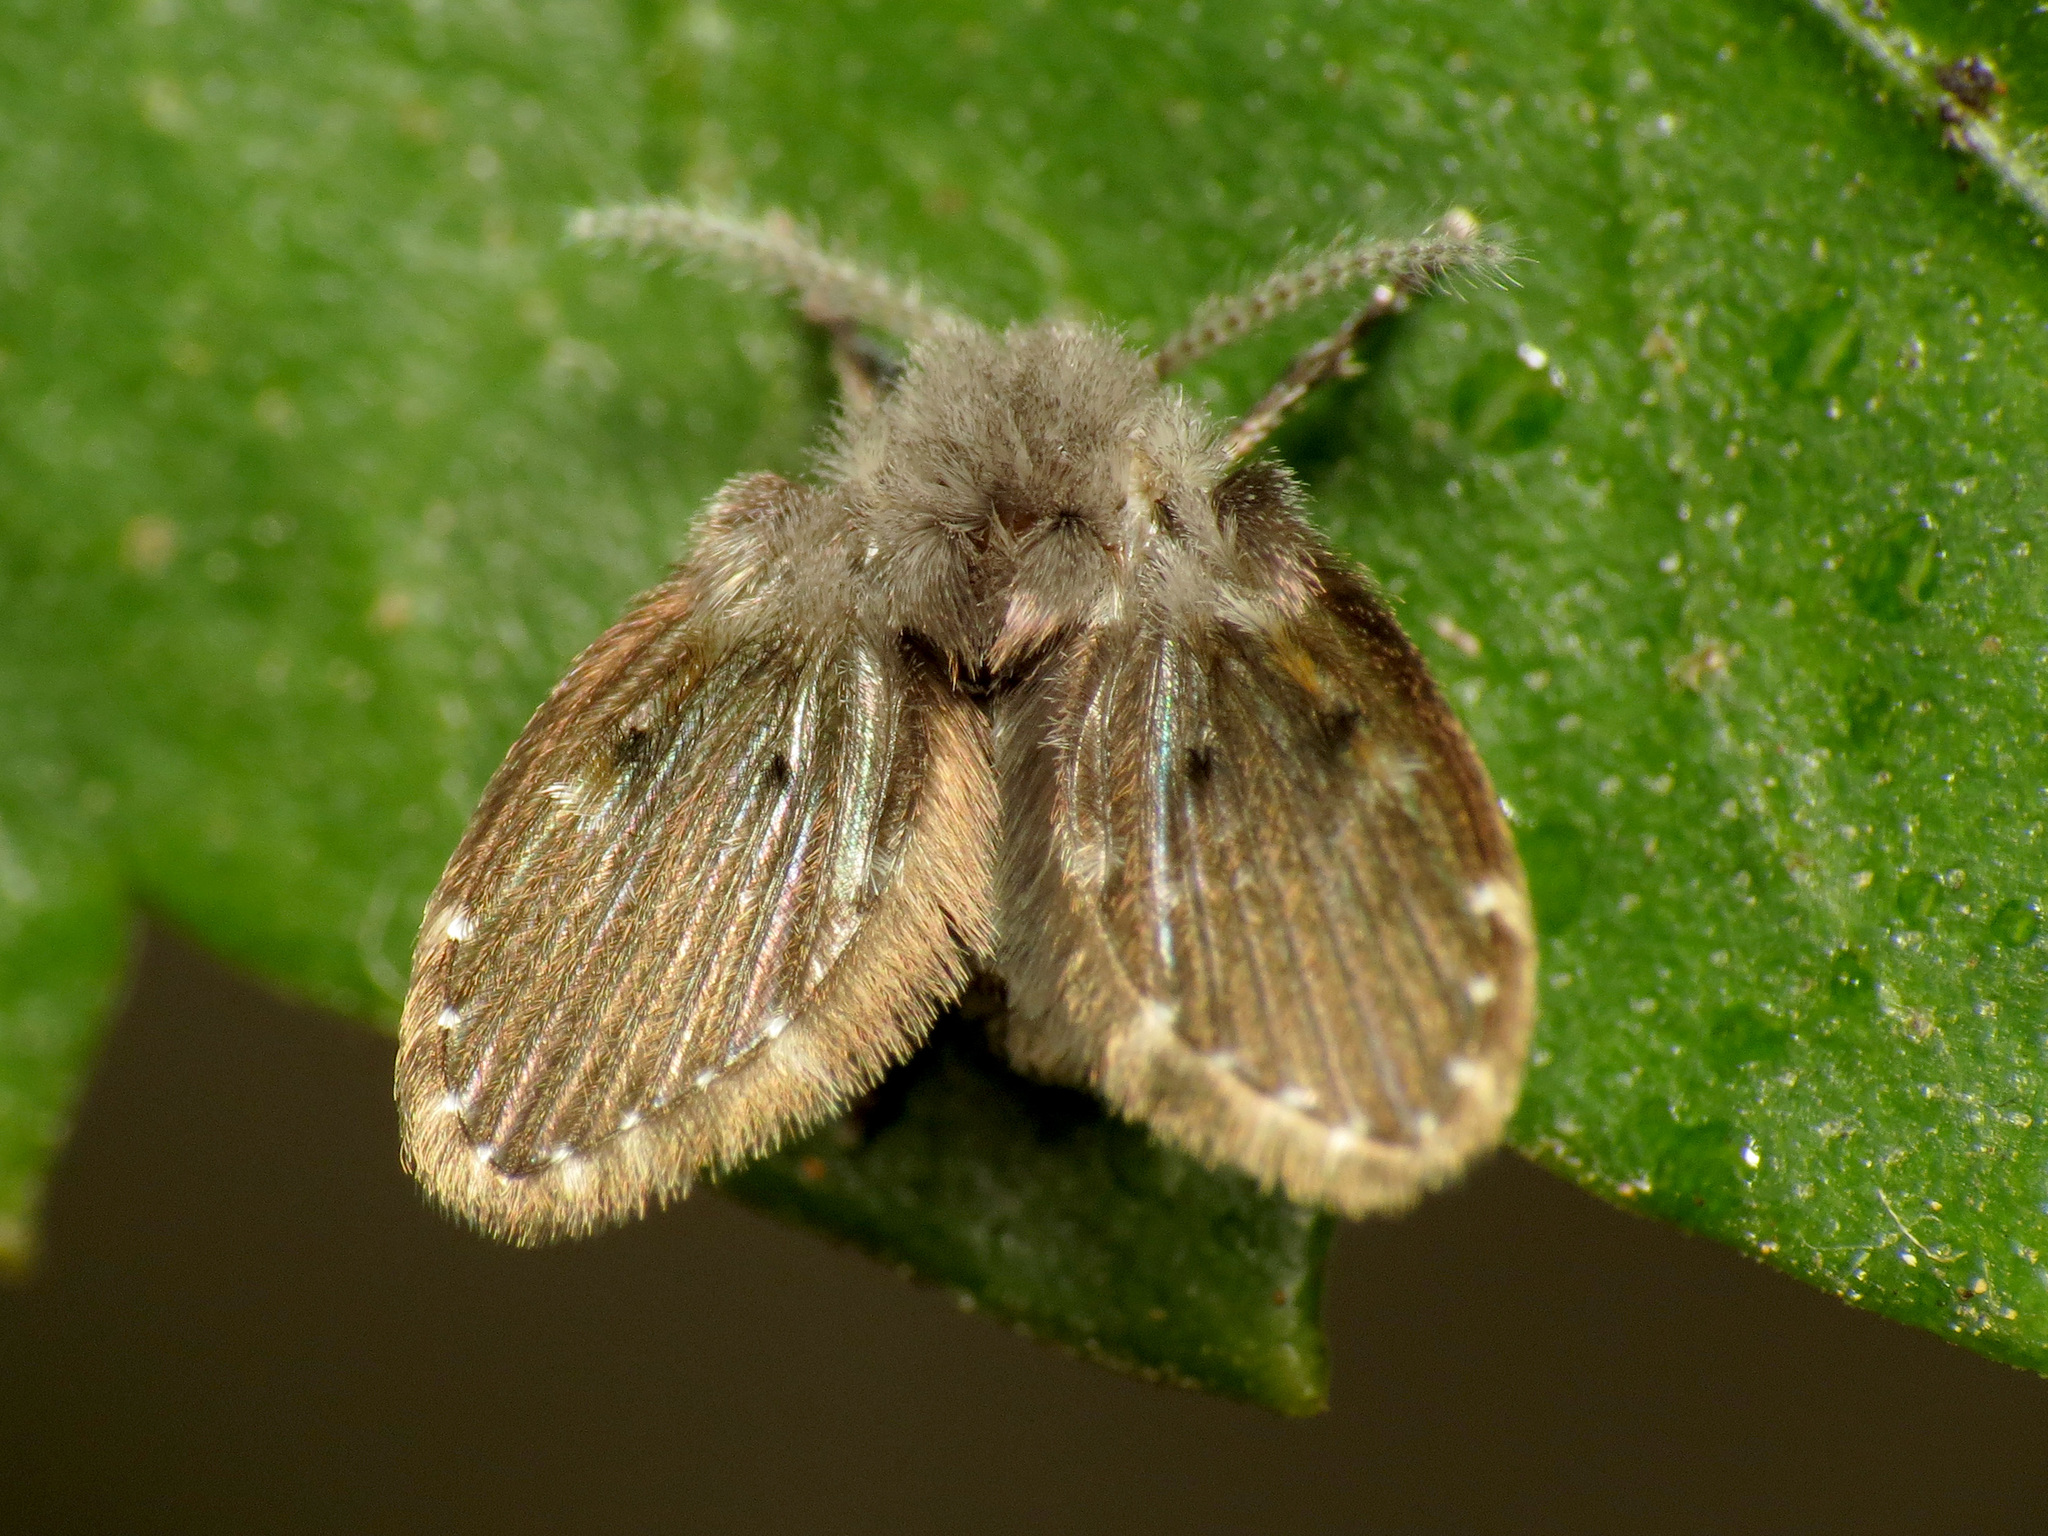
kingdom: Animalia
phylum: Arthropoda
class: Insecta
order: Diptera
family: Psychodidae
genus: Clogmia
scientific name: Clogmia albipunctatus
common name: White-spotted moth fly
